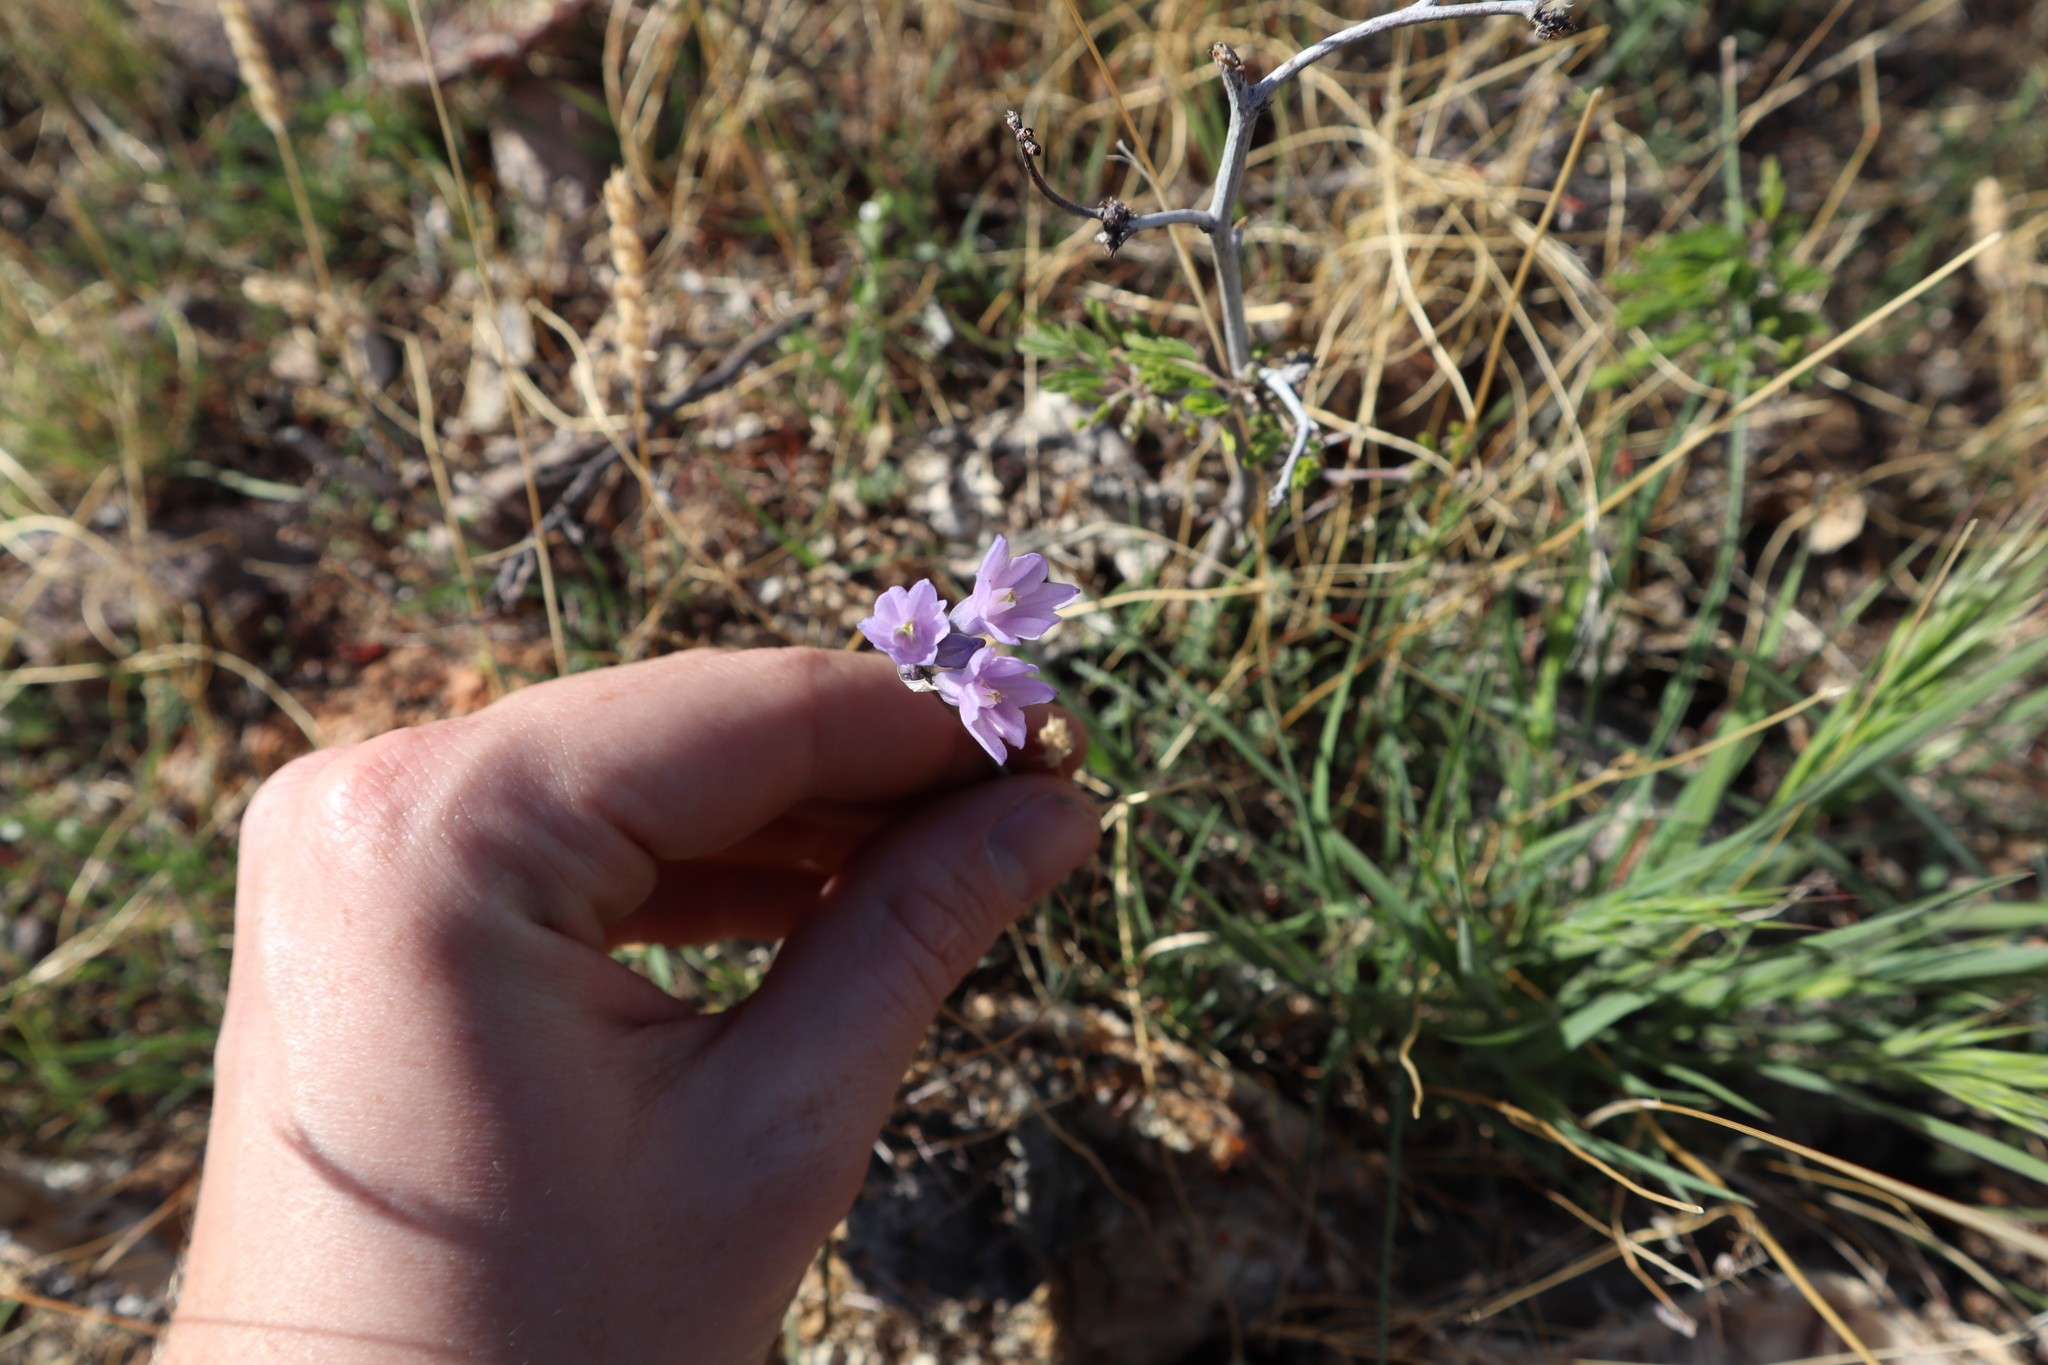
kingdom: Plantae
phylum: Tracheophyta
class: Liliopsida
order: Asparagales
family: Asparagaceae
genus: Dipterostemon
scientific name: Dipterostemon capitatus
